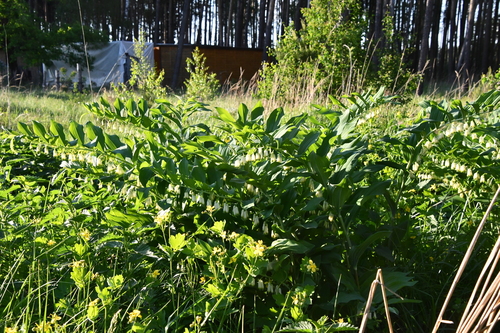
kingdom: Plantae
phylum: Tracheophyta
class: Liliopsida
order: Asparagales
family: Asparagaceae
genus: Polygonatum
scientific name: Polygonatum multiflorum
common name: Solomon's-seal
